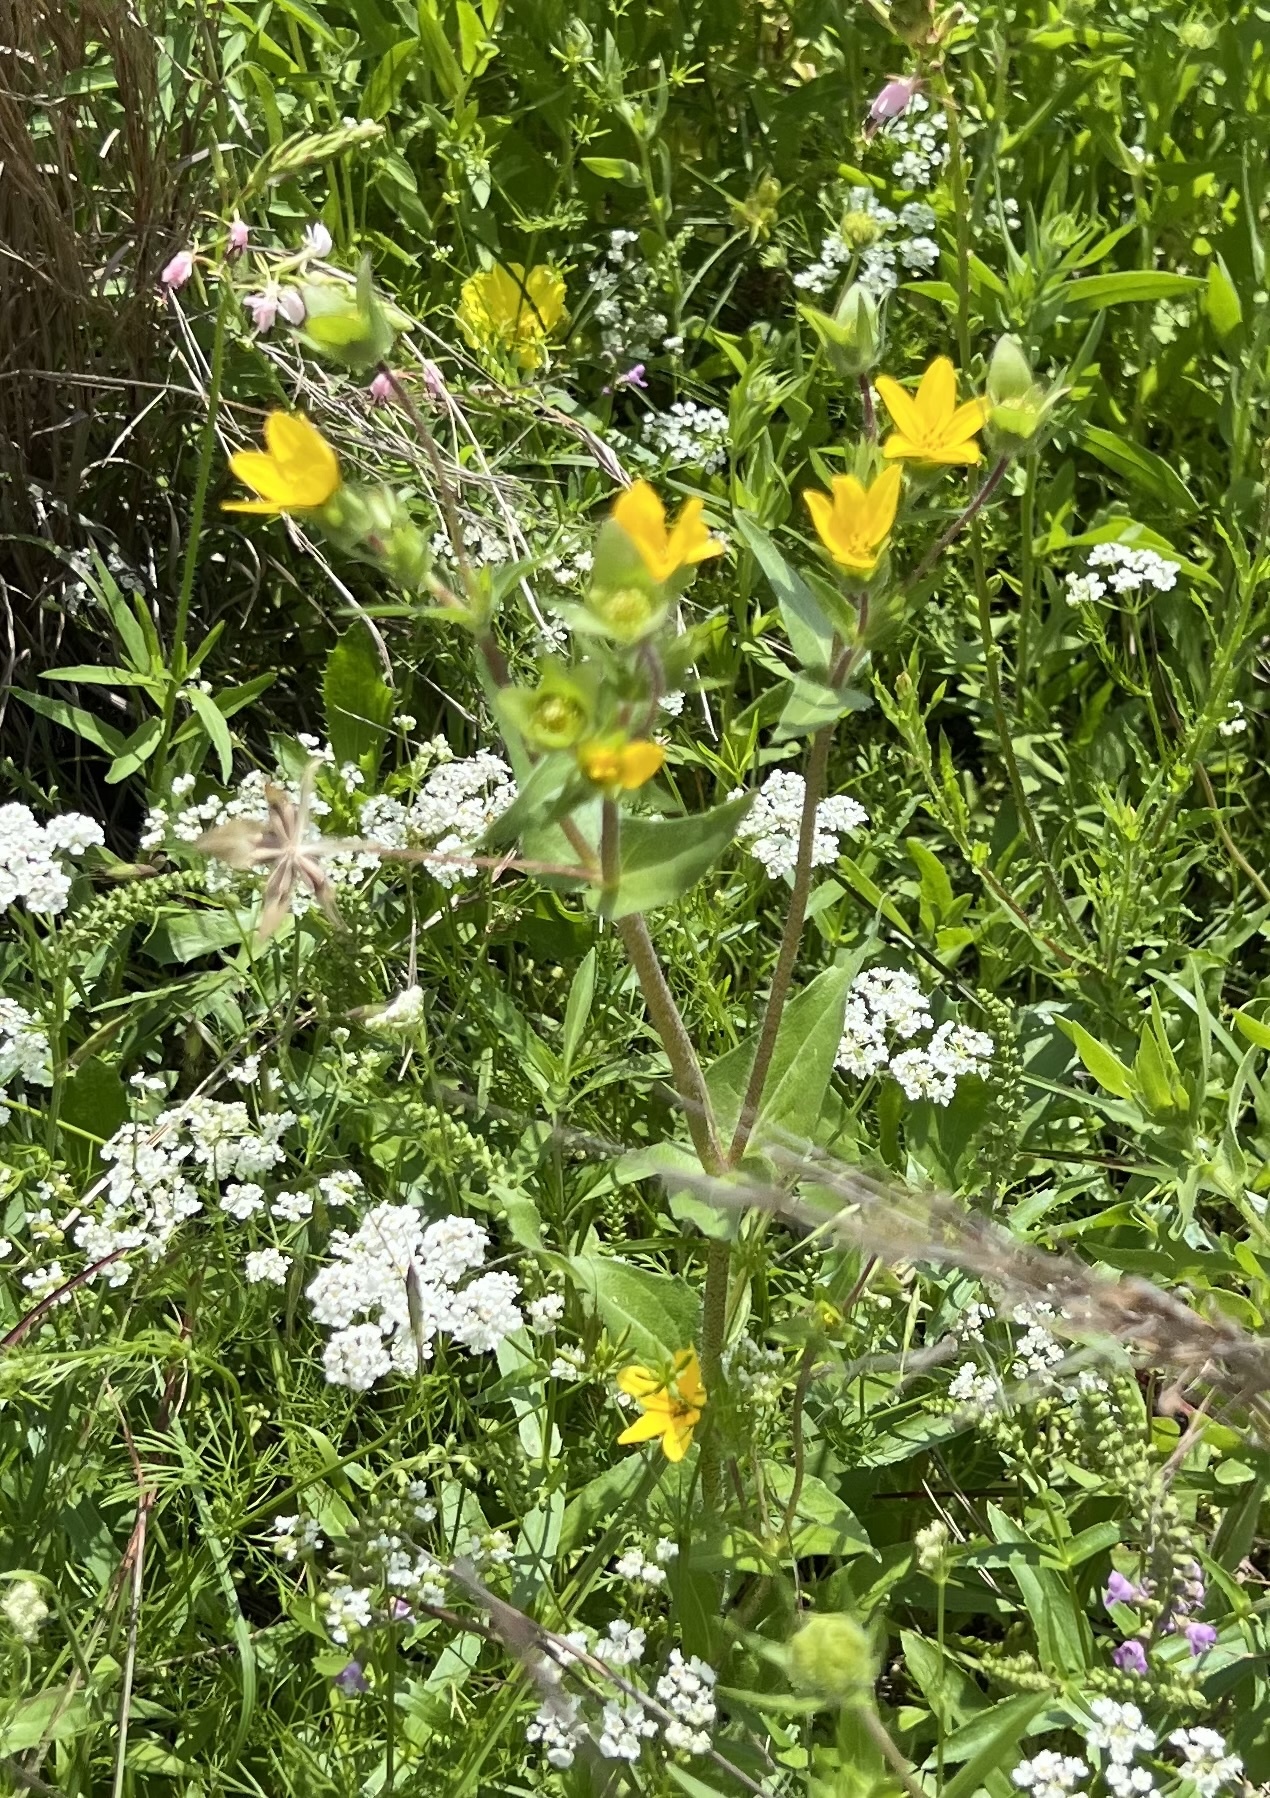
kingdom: Plantae
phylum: Tracheophyta
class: Magnoliopsida
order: Asterales
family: Asteraceae
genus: Lindheimera
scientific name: Lindheimera texana
